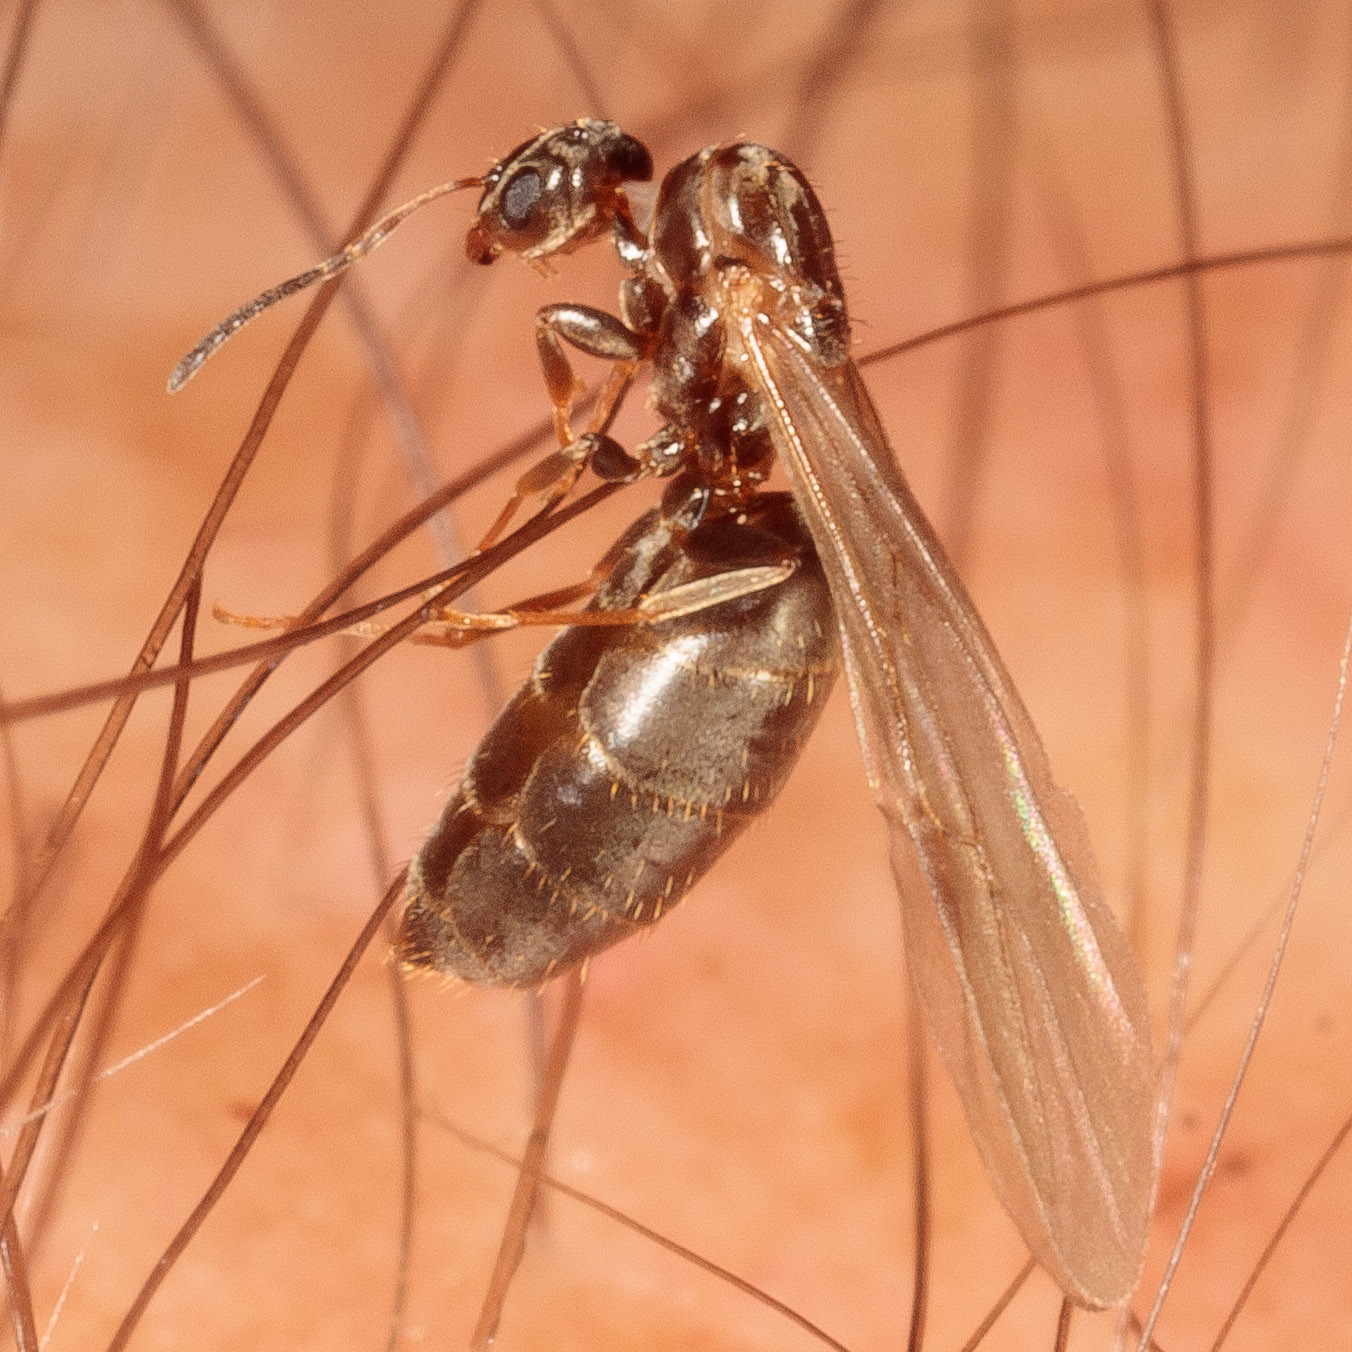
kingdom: Animalia
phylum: Arthropoda
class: Insecta
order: Hymenoptera
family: Formicidae
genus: Brachymyrmex
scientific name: Brachymyrmex patagonicus
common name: Dark rover ant
